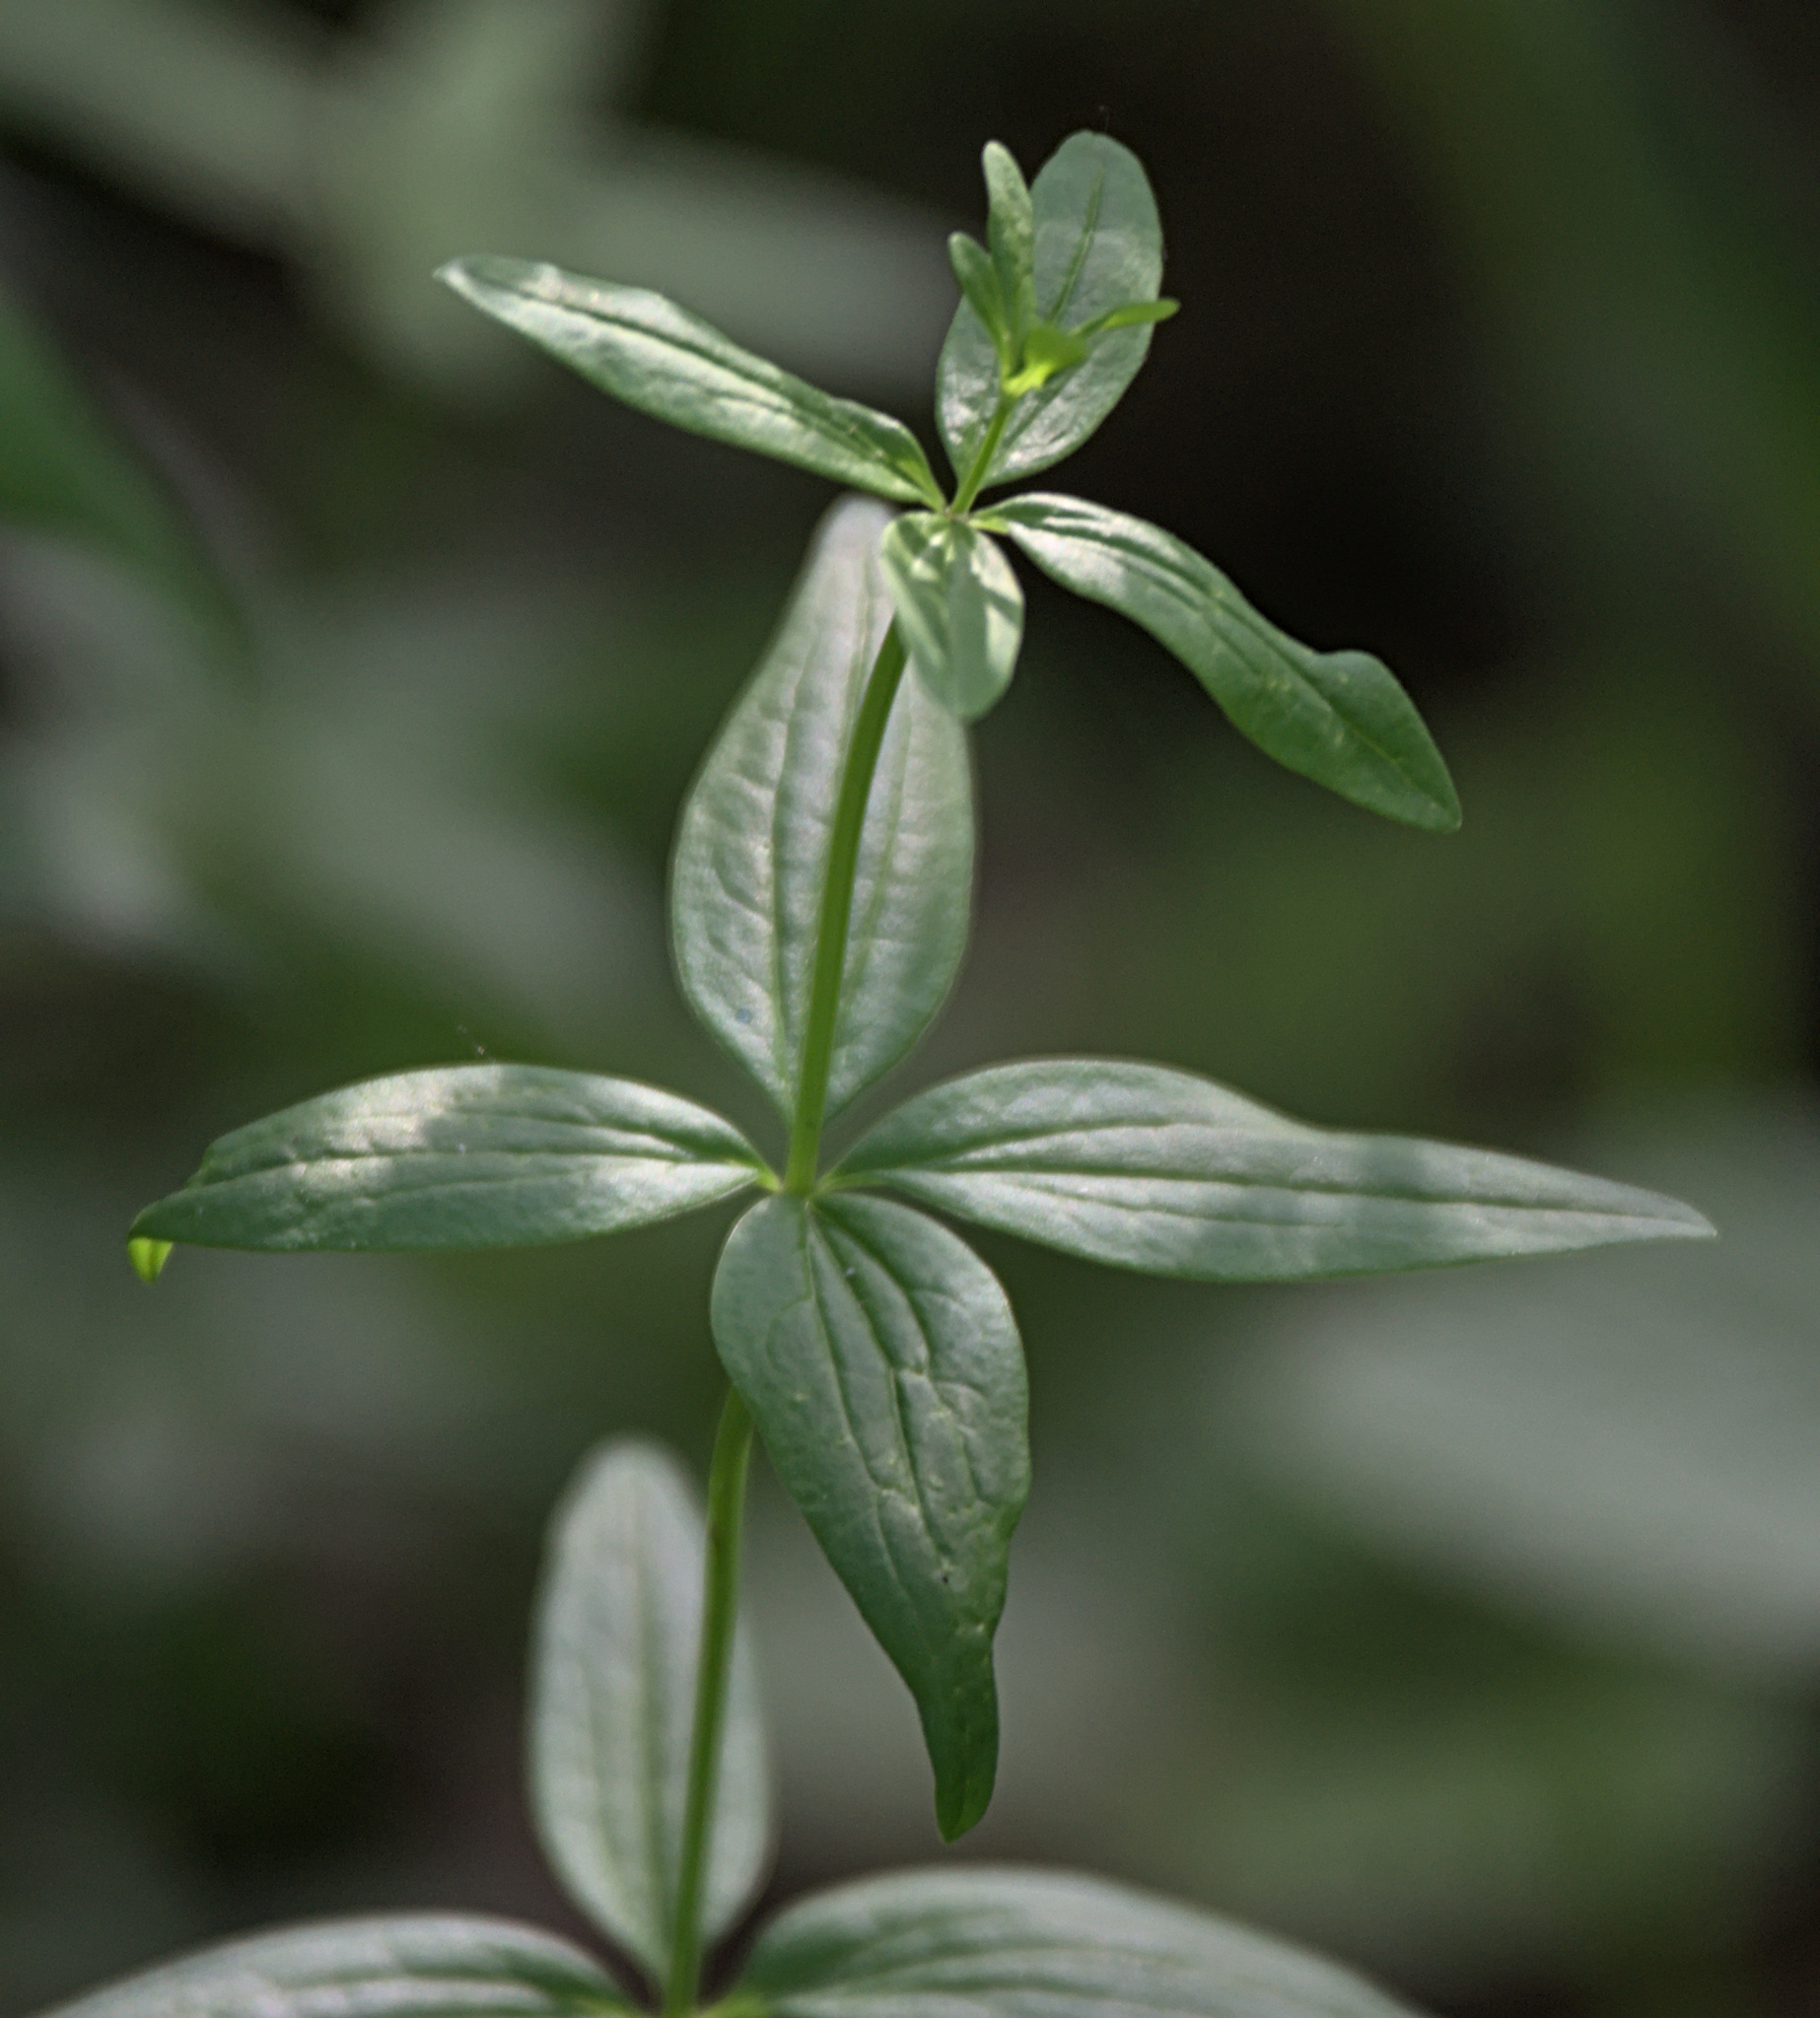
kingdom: Plantae
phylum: Tracheophyta
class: Magnoliopsida
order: Gentianales
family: Rubiaceae
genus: Galium
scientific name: Galium boreale
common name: Northern bedstraw
